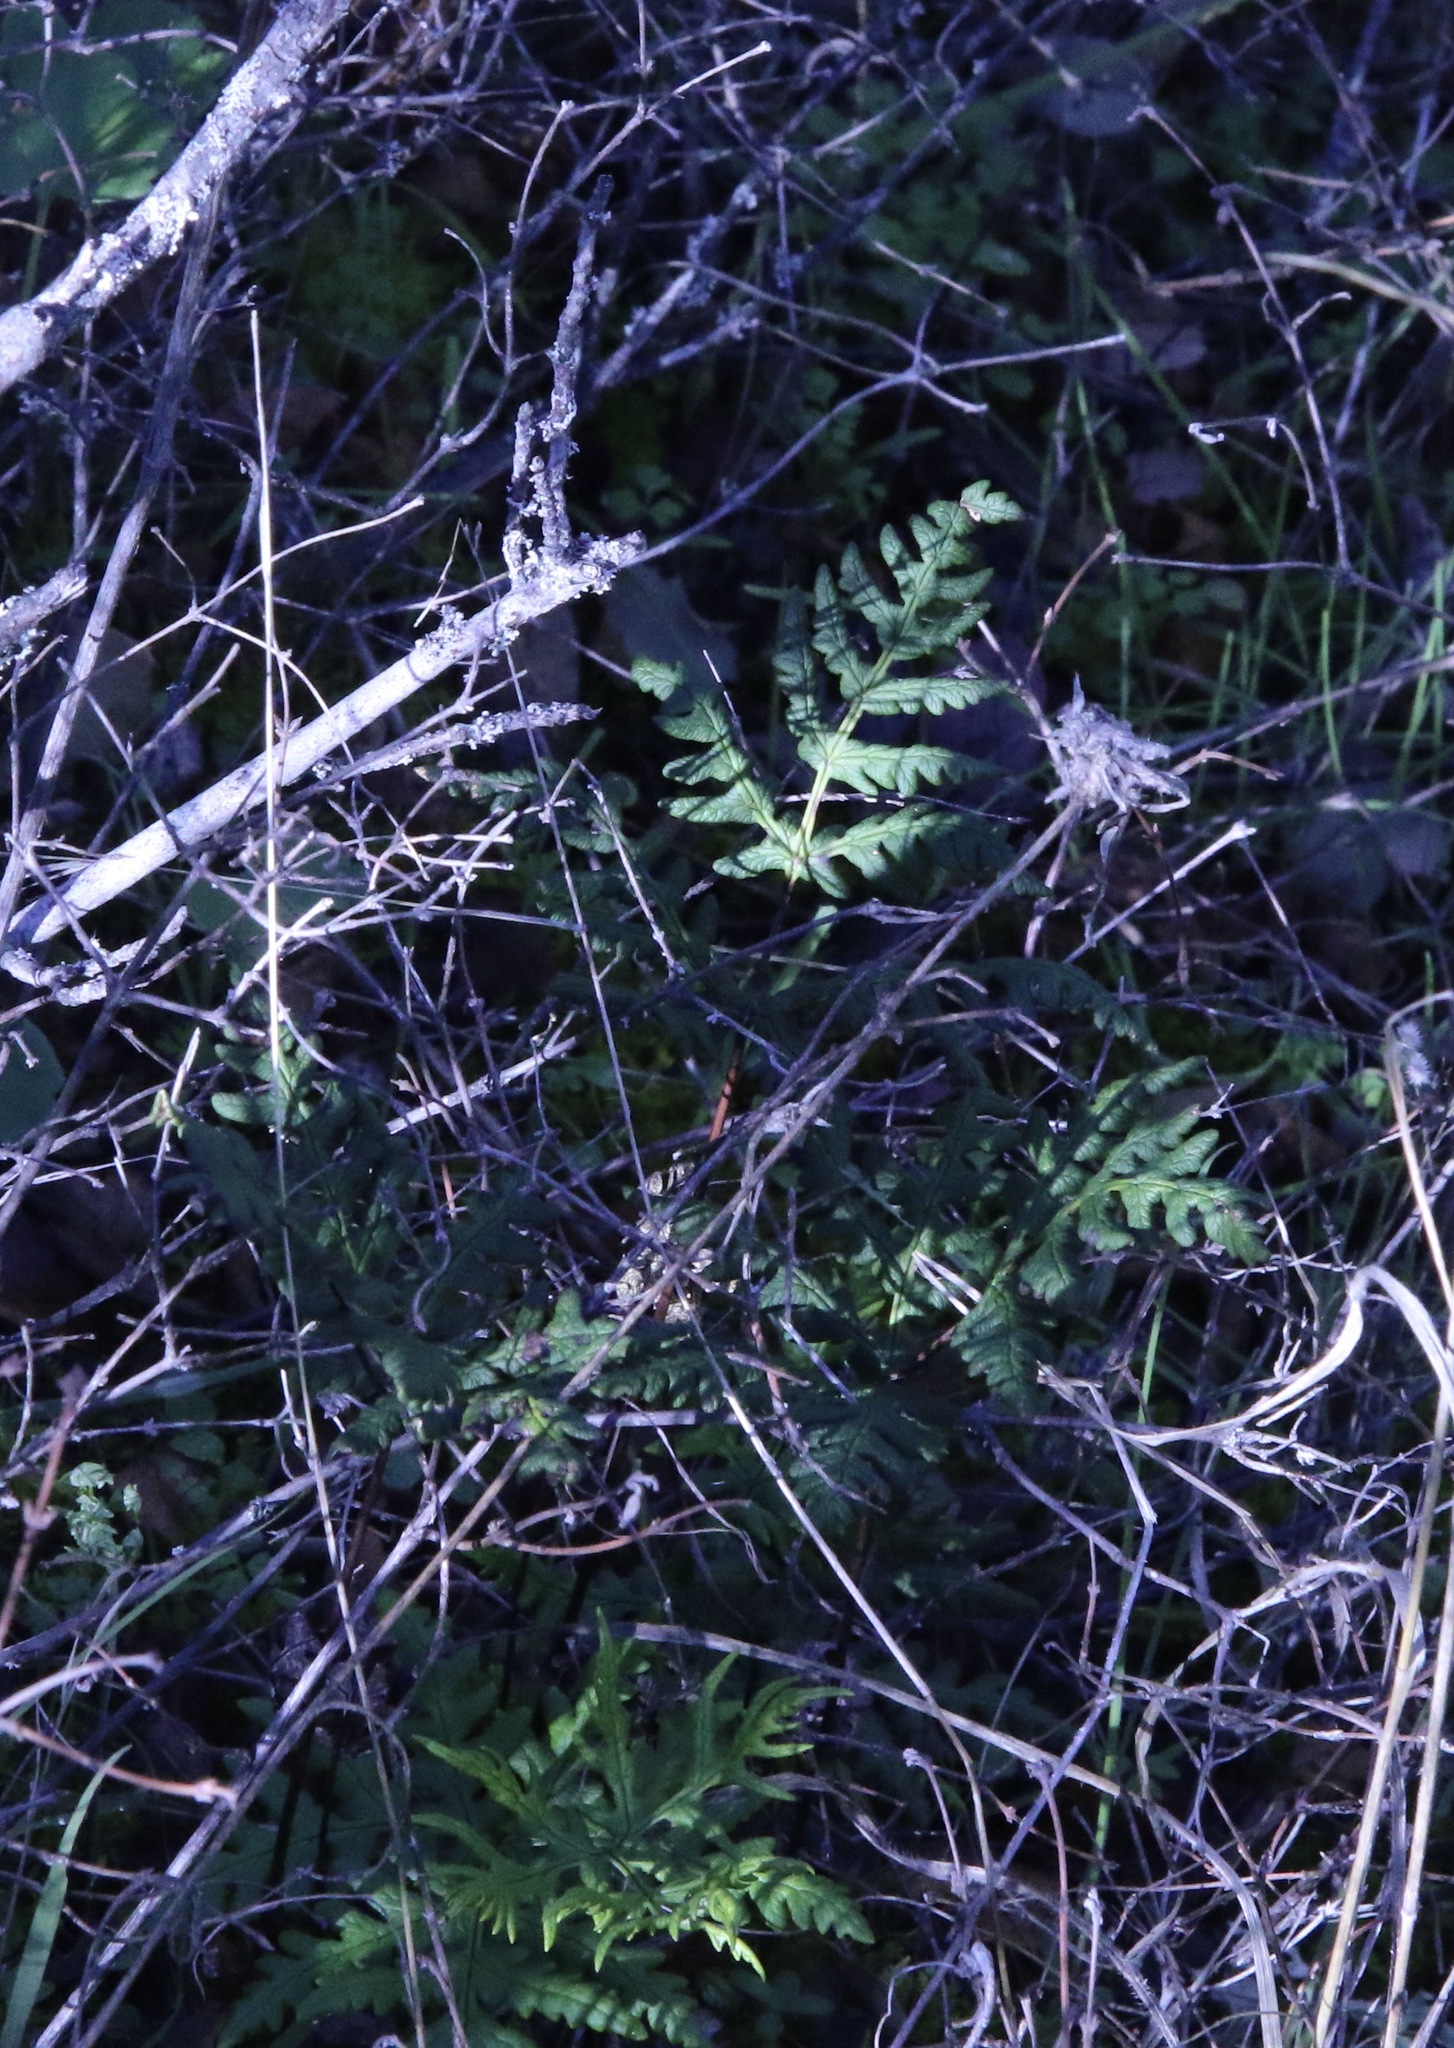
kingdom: Plantae
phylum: Tracheophyta
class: Polypodiopsida
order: Polypodiales
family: Pteridaceae
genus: Pentagramma
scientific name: Pentagramma triangularis
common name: Gold fern
